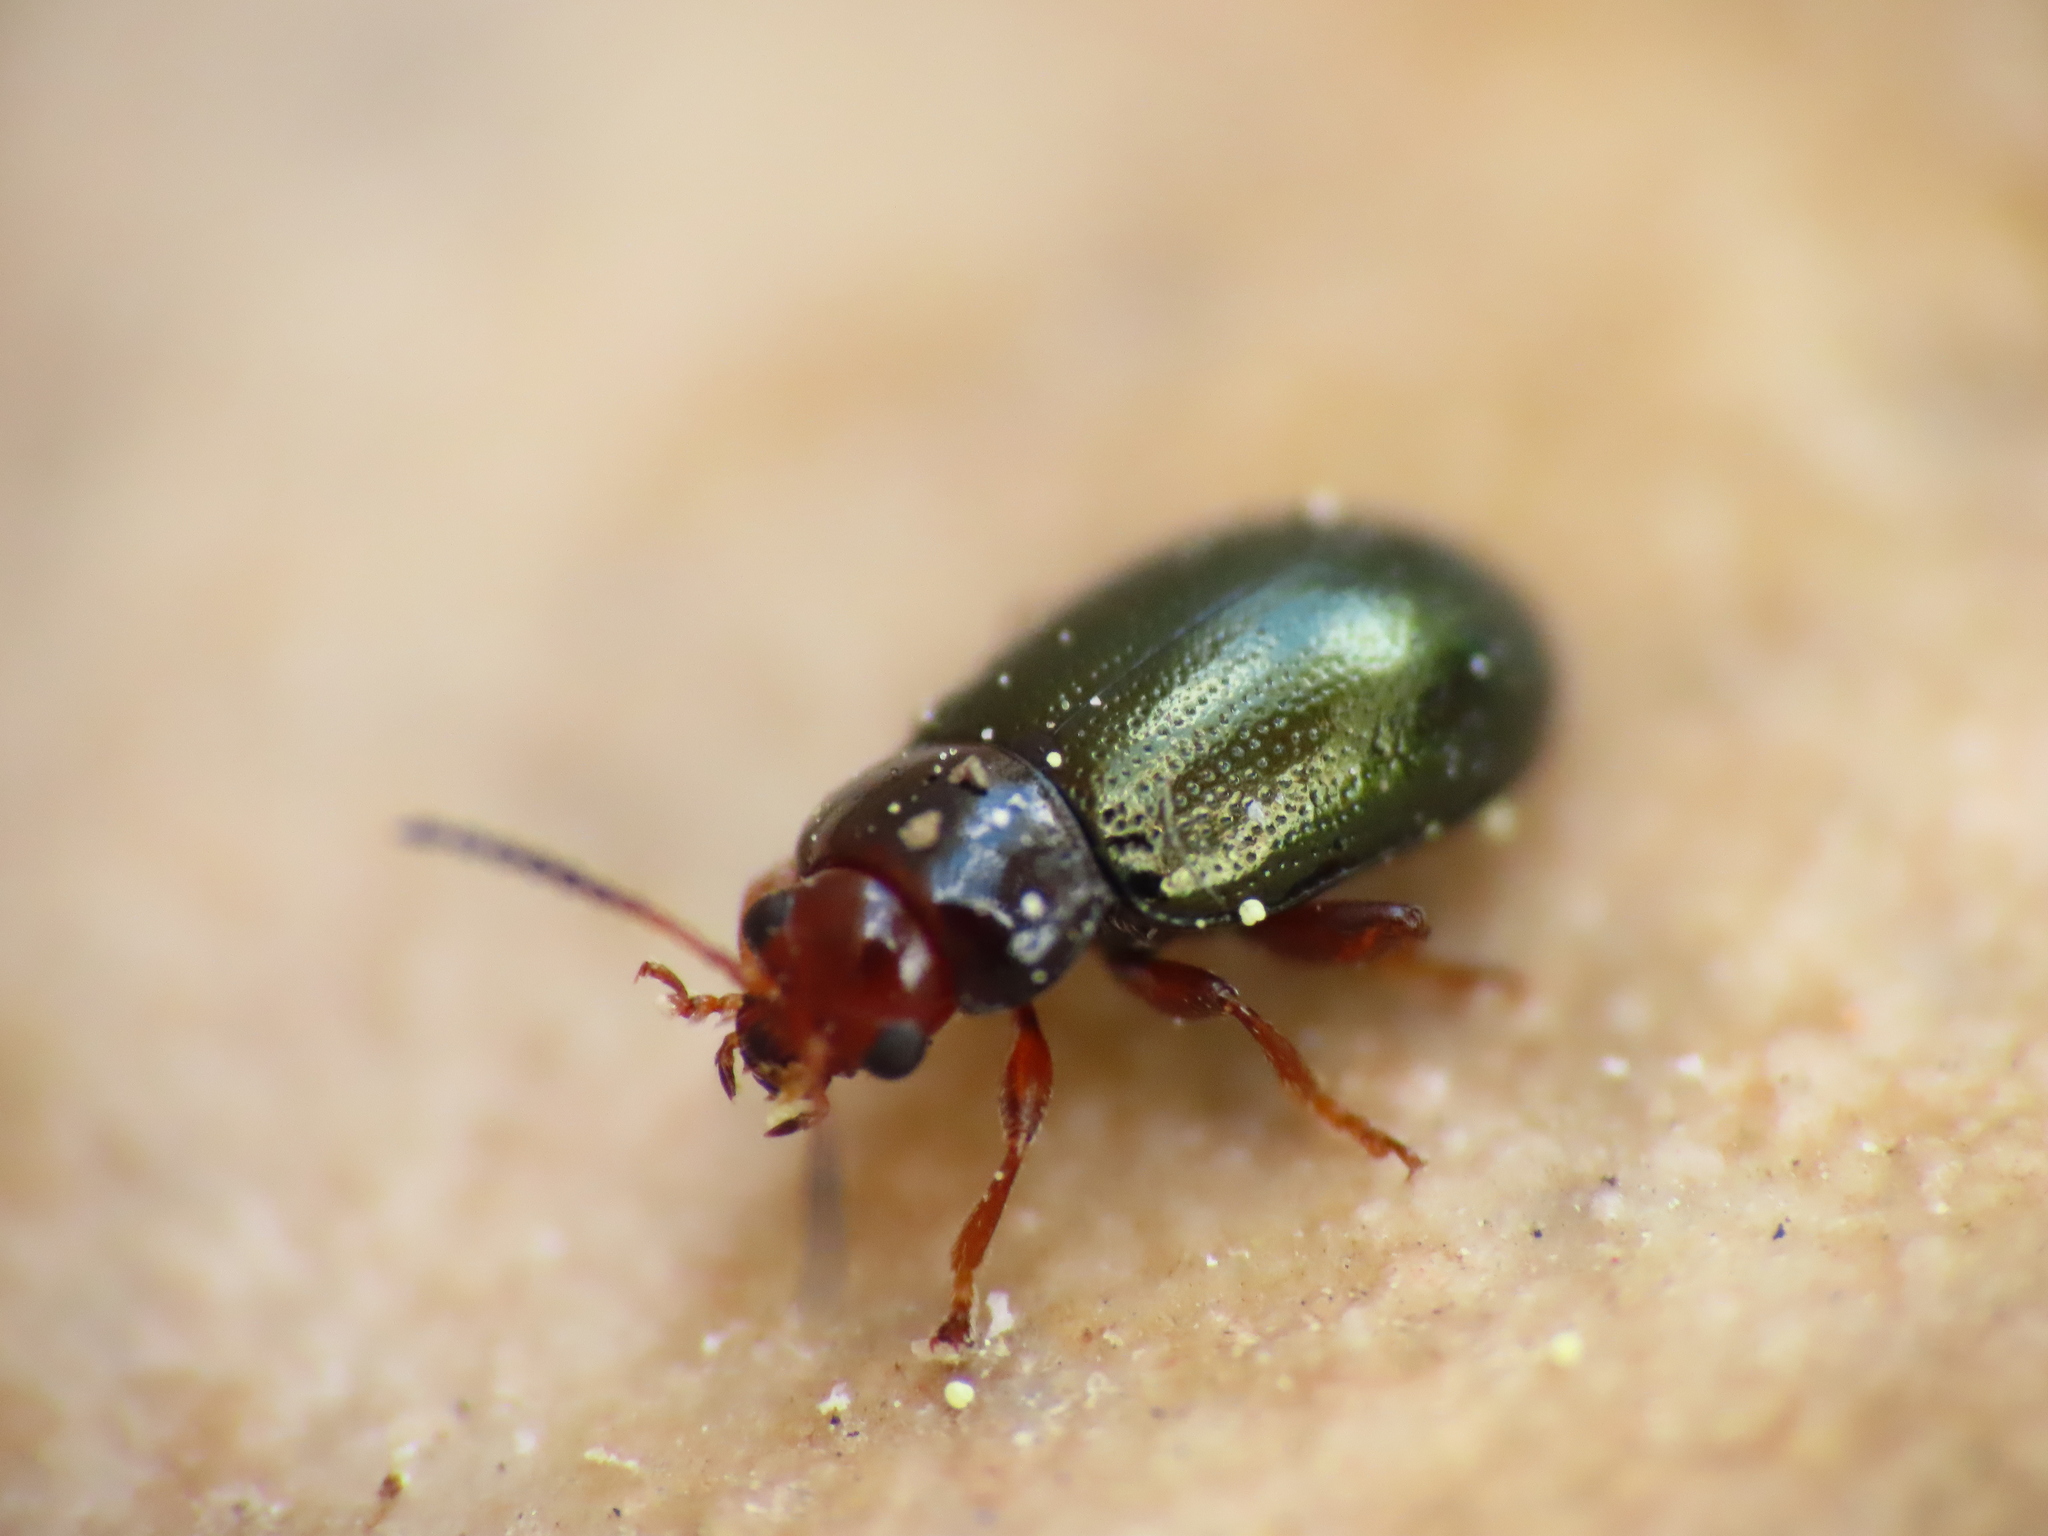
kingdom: Animalia
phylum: Arthropoda
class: Insecta
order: Coleoptera
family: Chrysomelidae
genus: Podagrica
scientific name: Podagrica malvae
